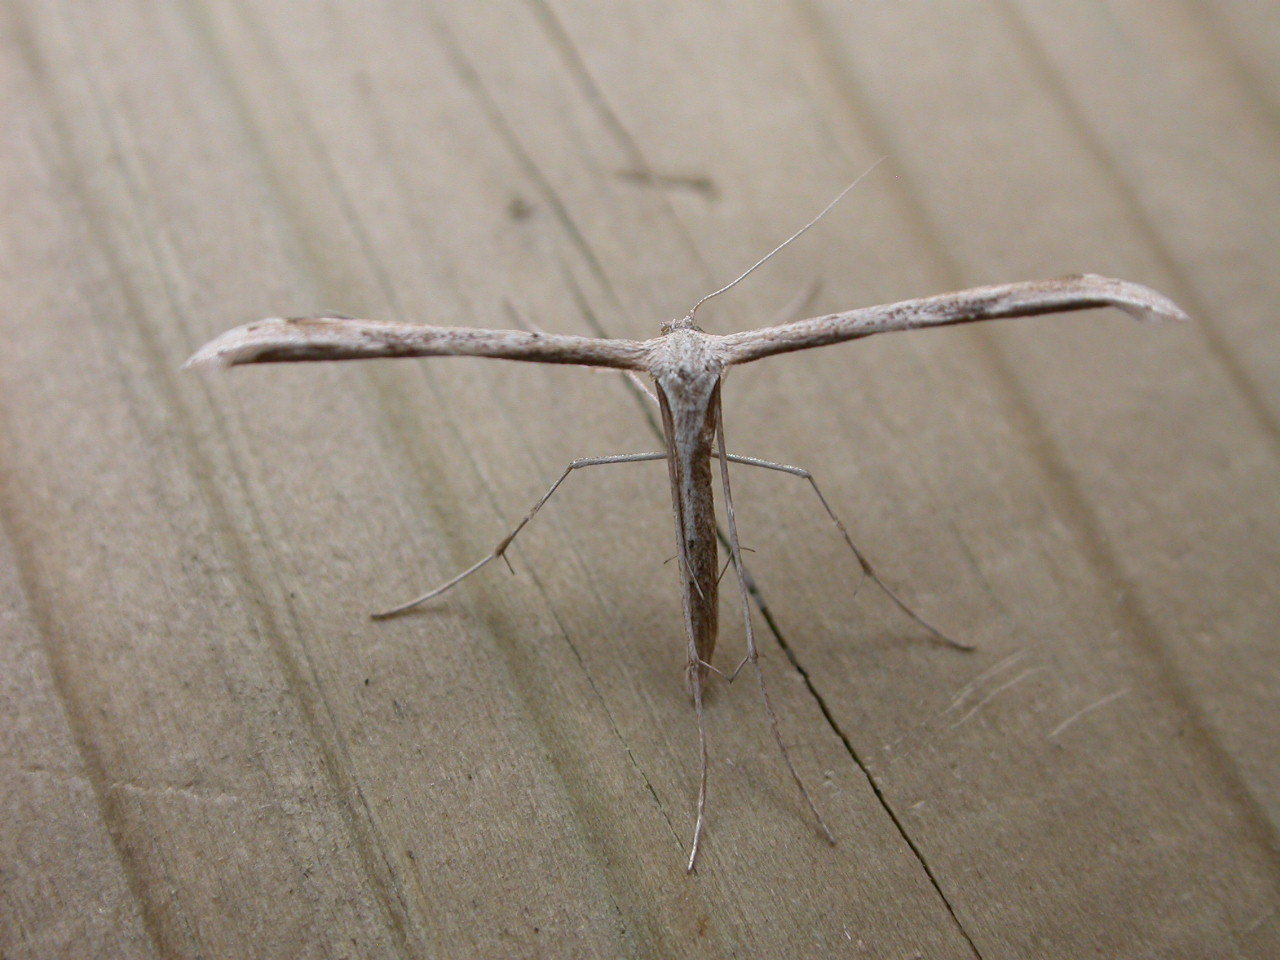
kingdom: Animalia
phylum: Arthropoda
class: Insecta
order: Lepidoptera
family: Pterophoridae
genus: Emmelina
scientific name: Emmelina monodactyla
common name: Common plume
